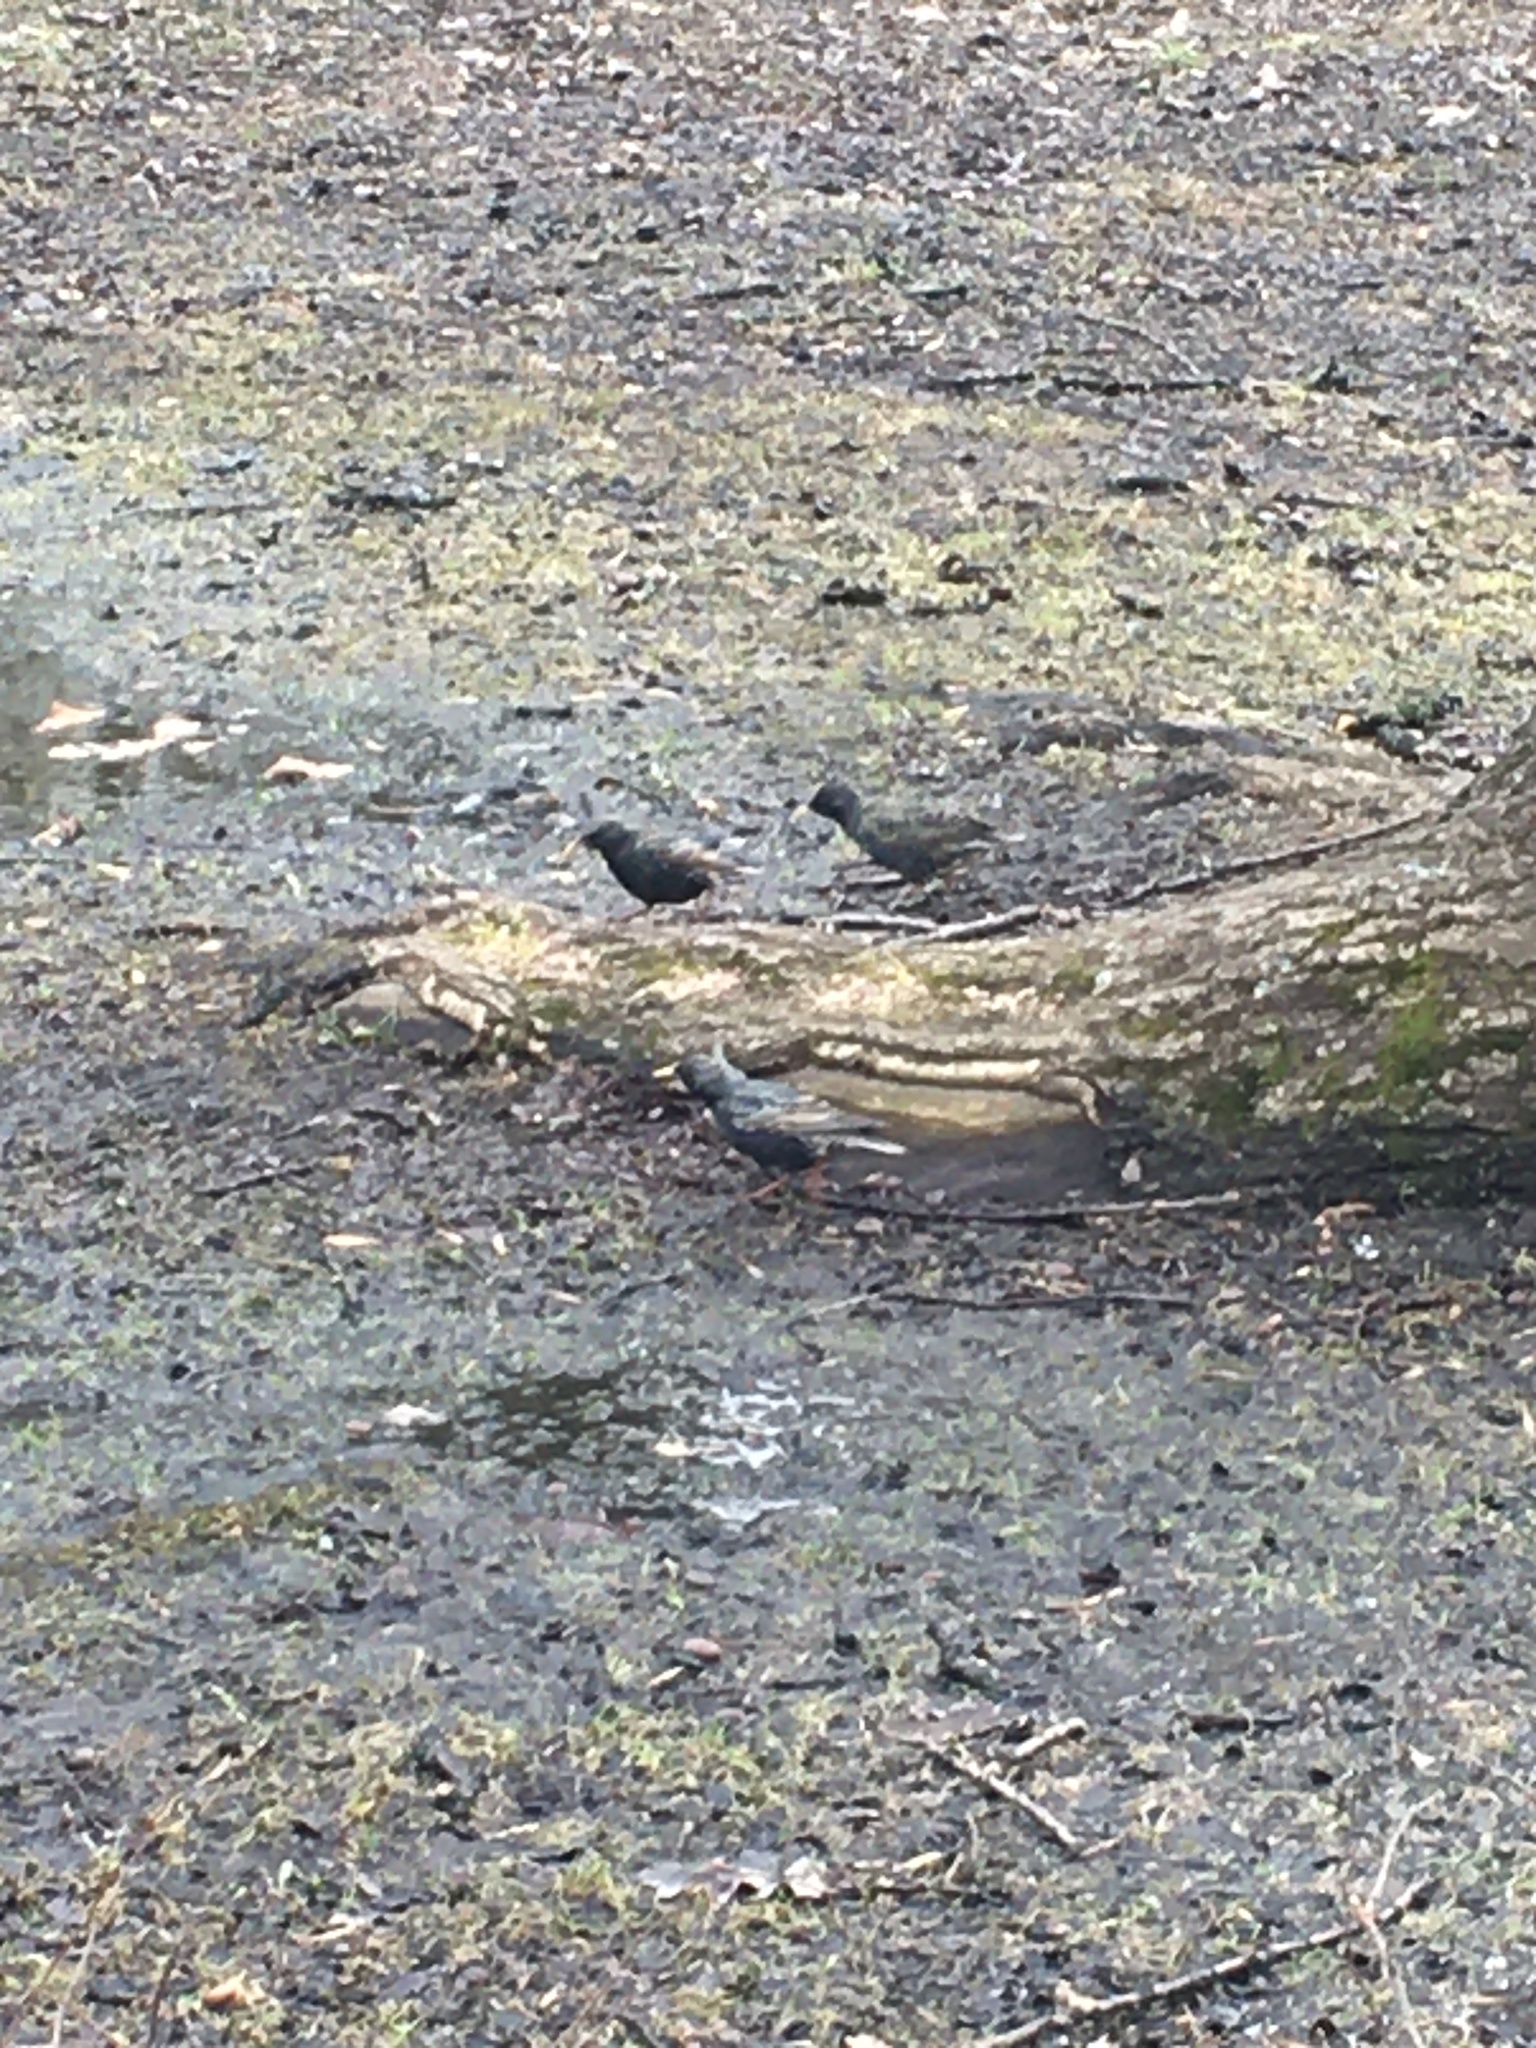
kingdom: Animalia
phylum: Chordata
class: Aves
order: Passeriformes
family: Sturnidae
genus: Sturnus
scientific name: Sturnus vulgaris
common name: Common starling
